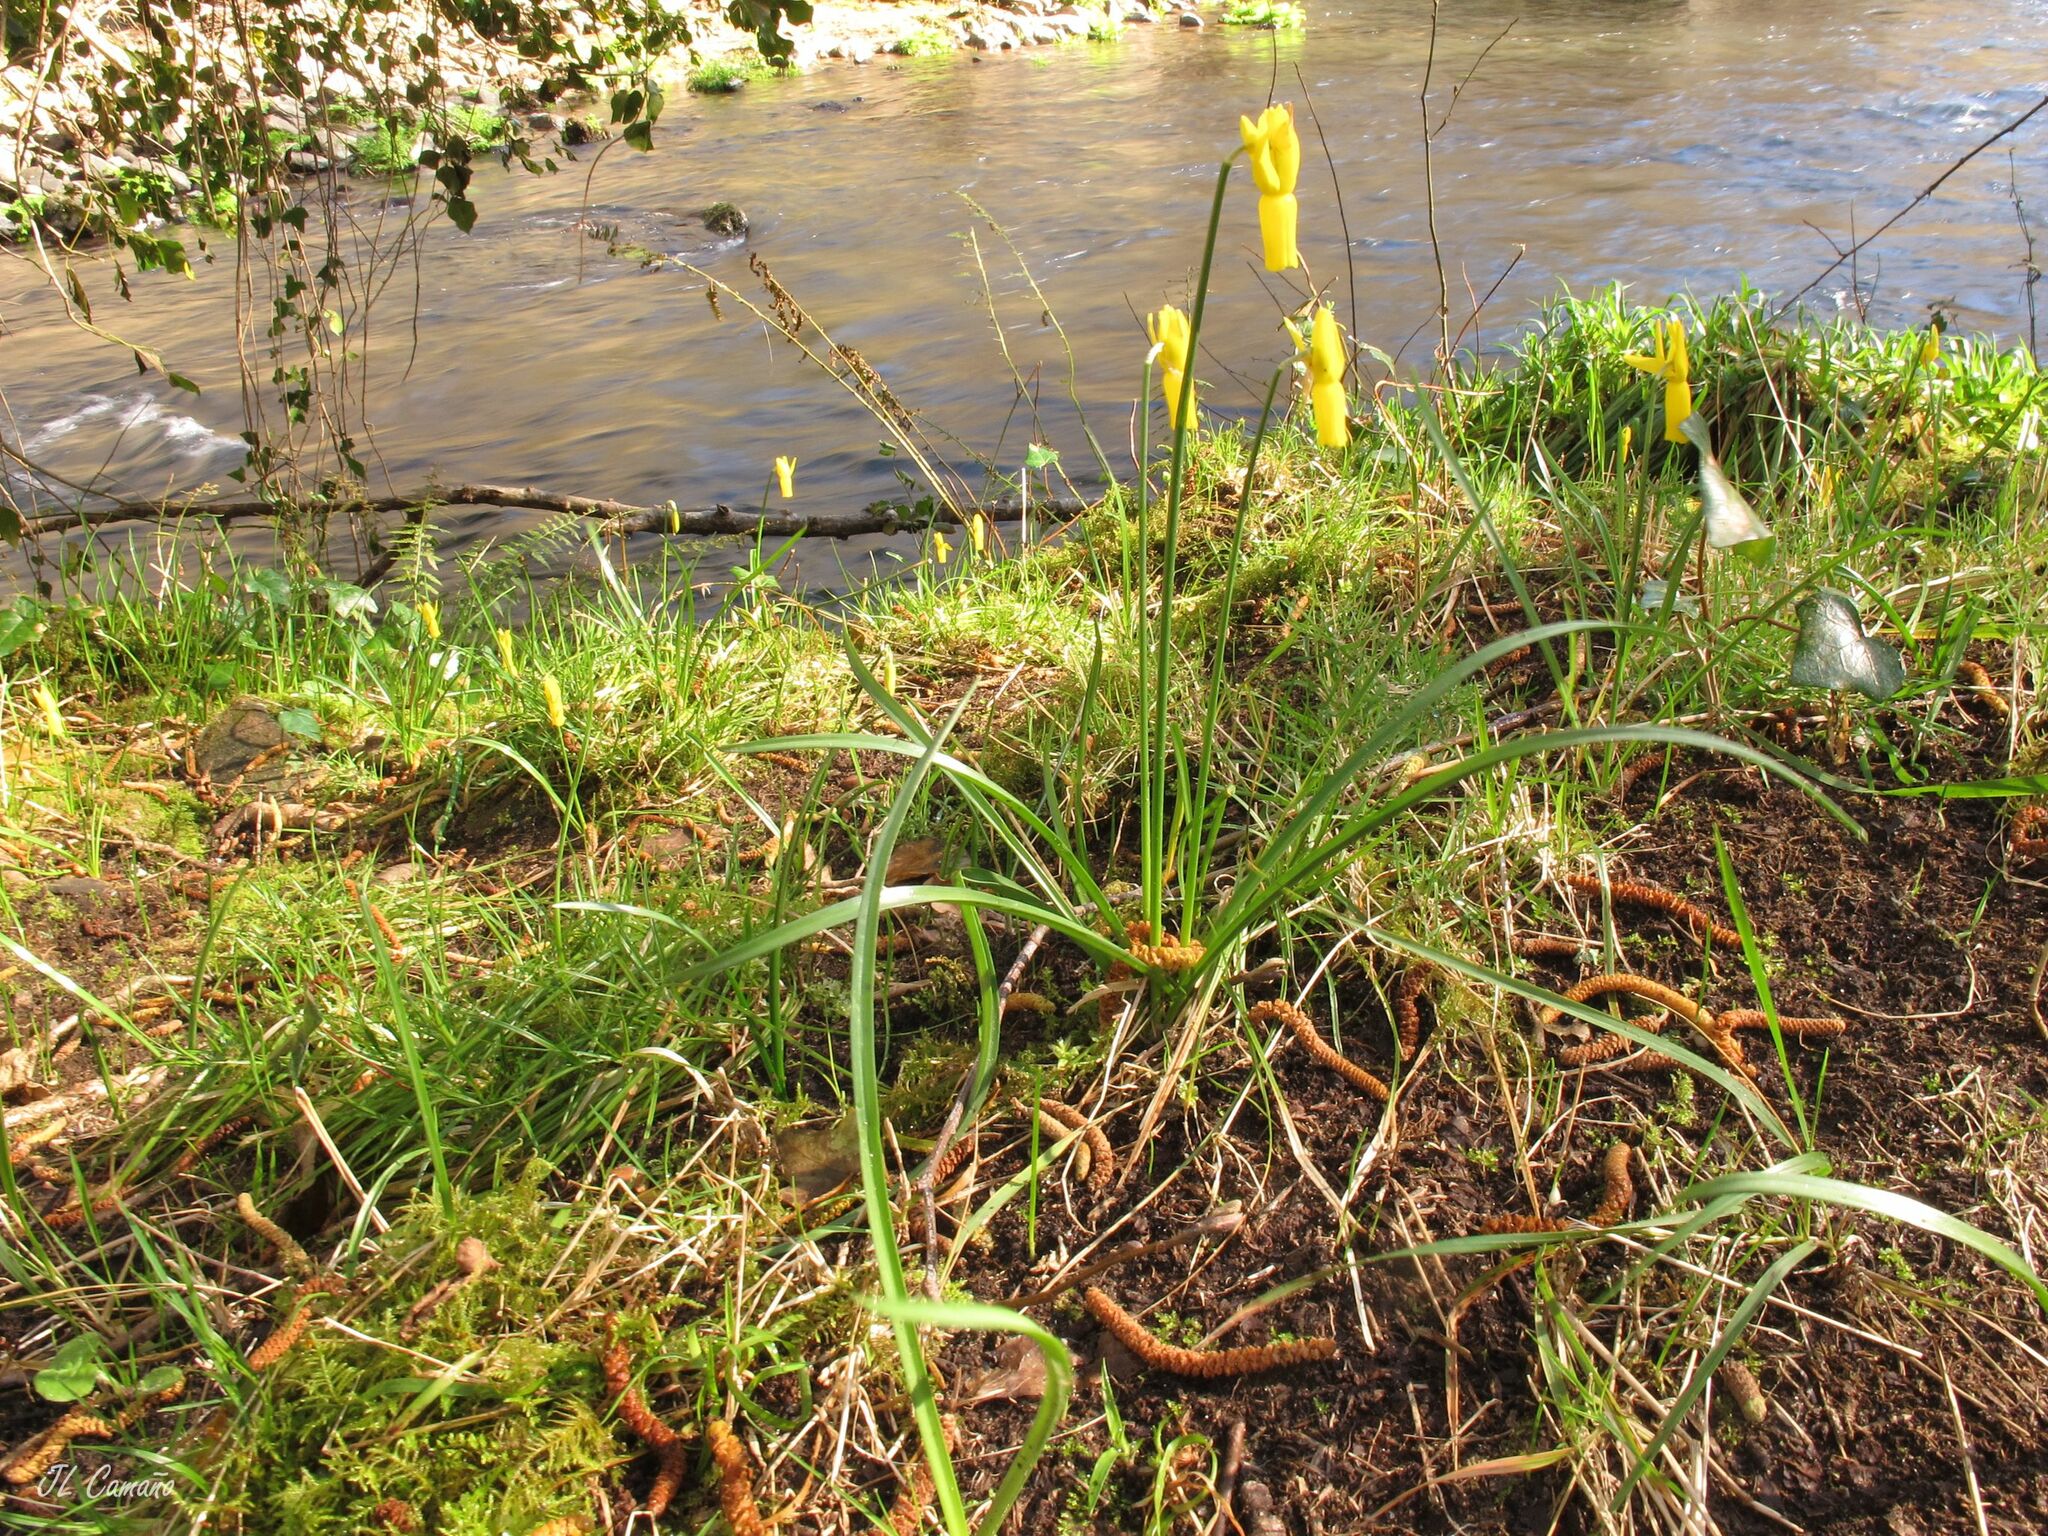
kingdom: Plantae
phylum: Tracheophyta
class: Liliopsida
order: Asparagales
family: Amaryllidaceae
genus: Narcissus
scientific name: Narcissus cyclamineus
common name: Cyclamen-flowered daffodil
